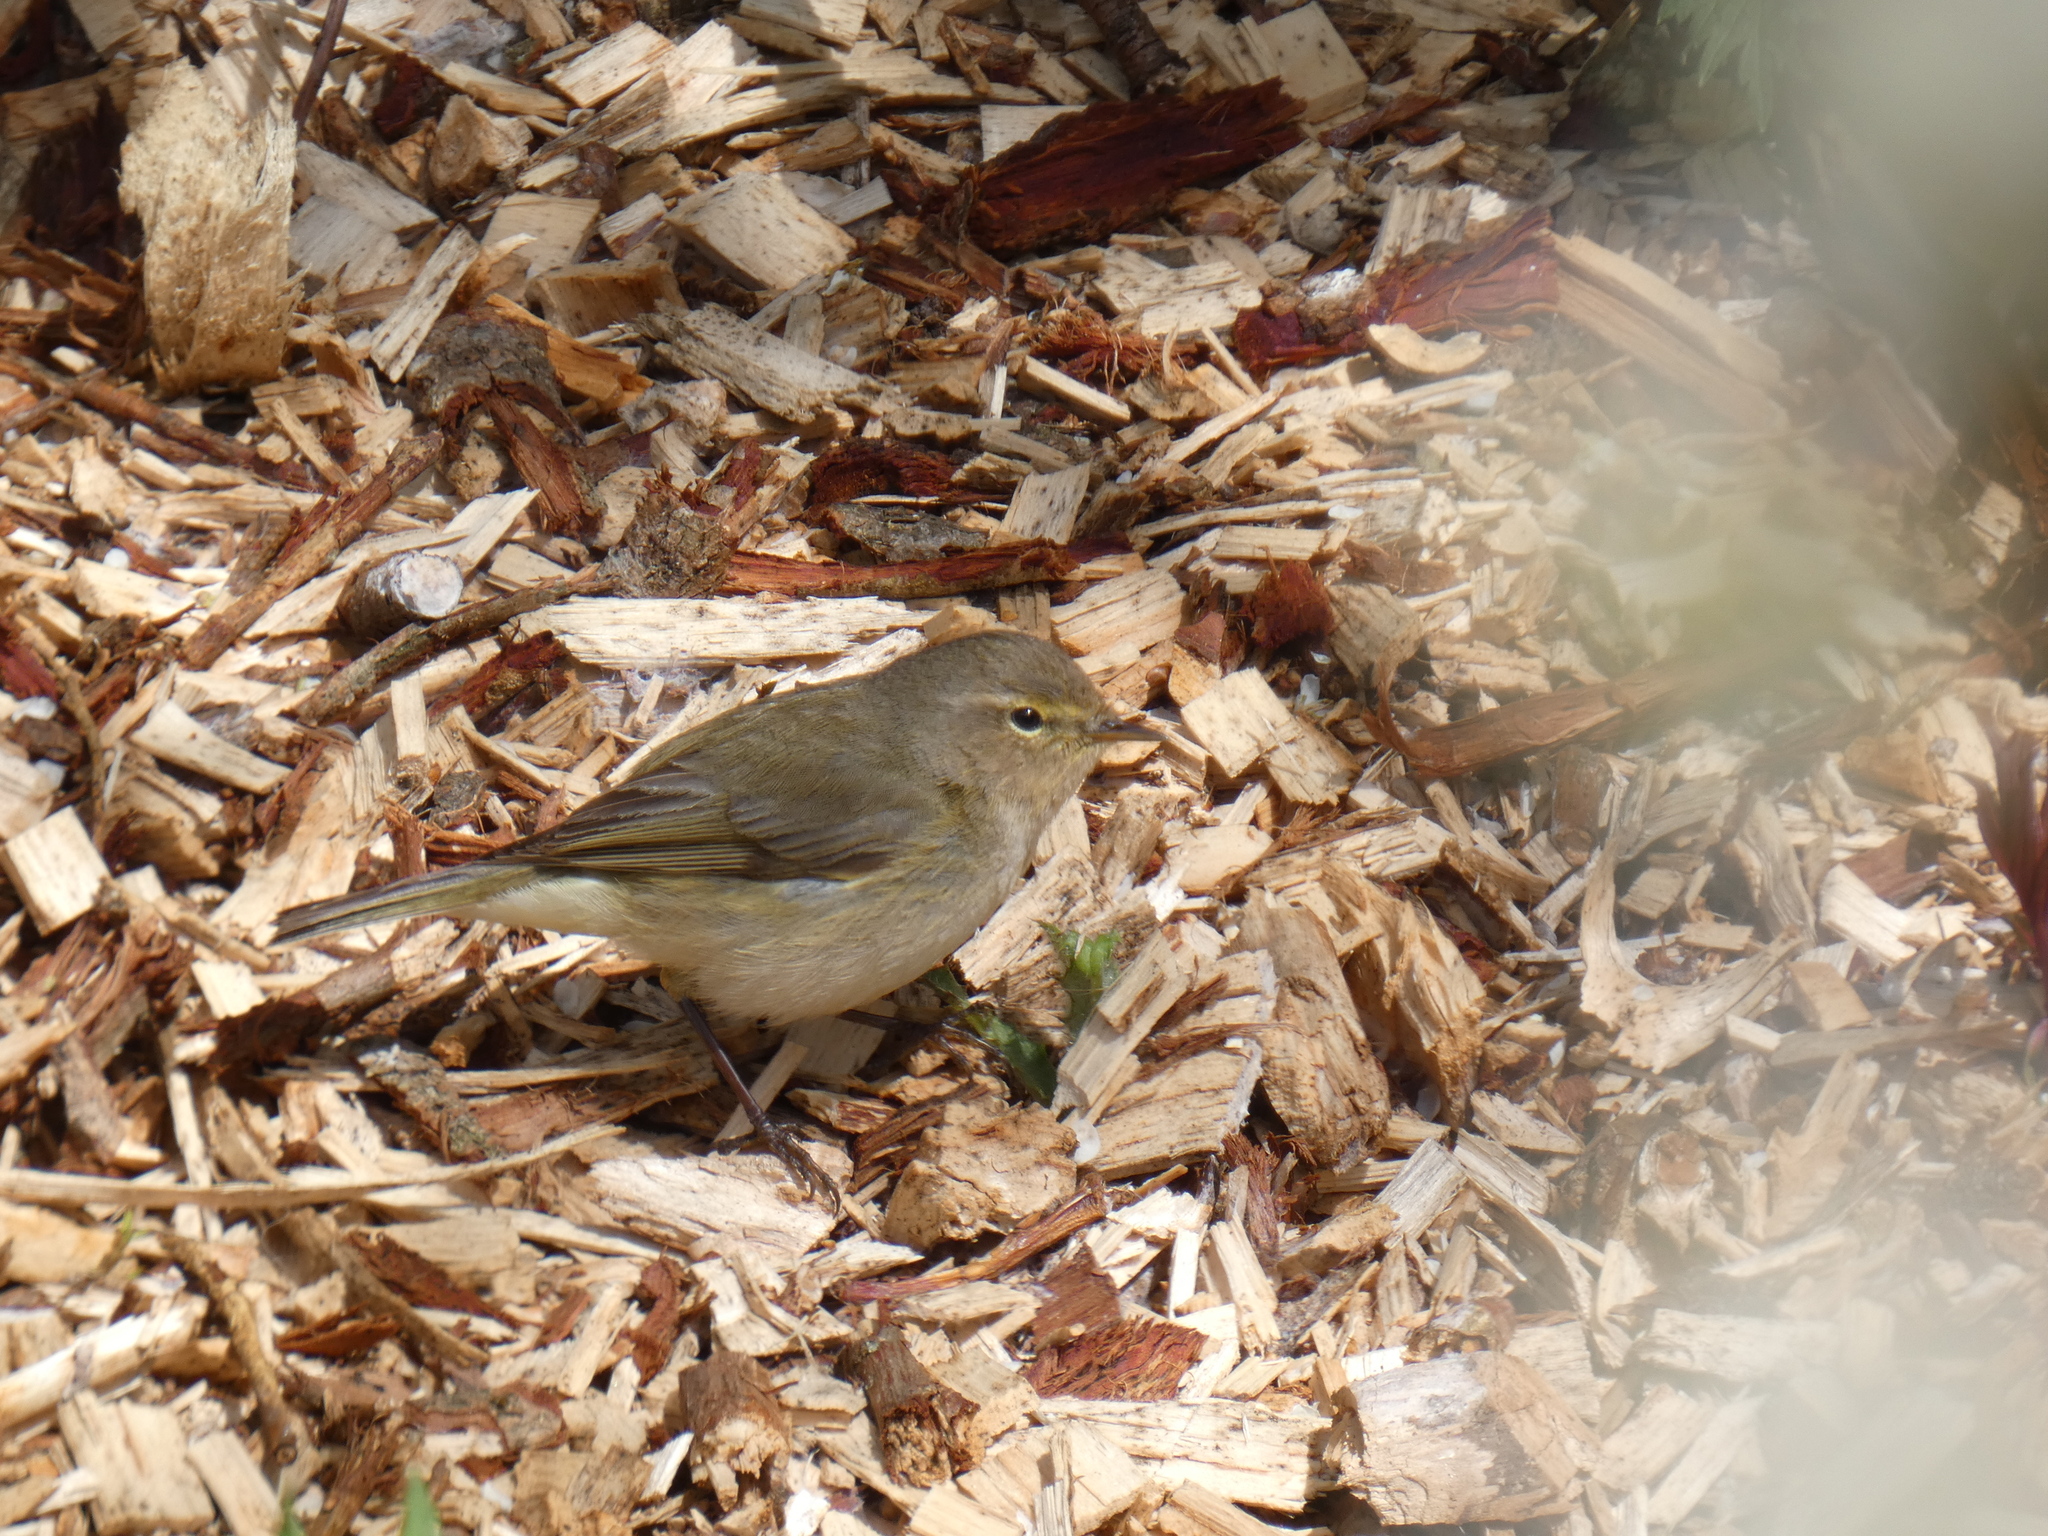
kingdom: Animalia
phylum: Chordata
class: Aves
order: Passeriformes
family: Phylloscopidae
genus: Phylloscopus
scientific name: Phylloscopus collybita
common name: Common chiffchaff
